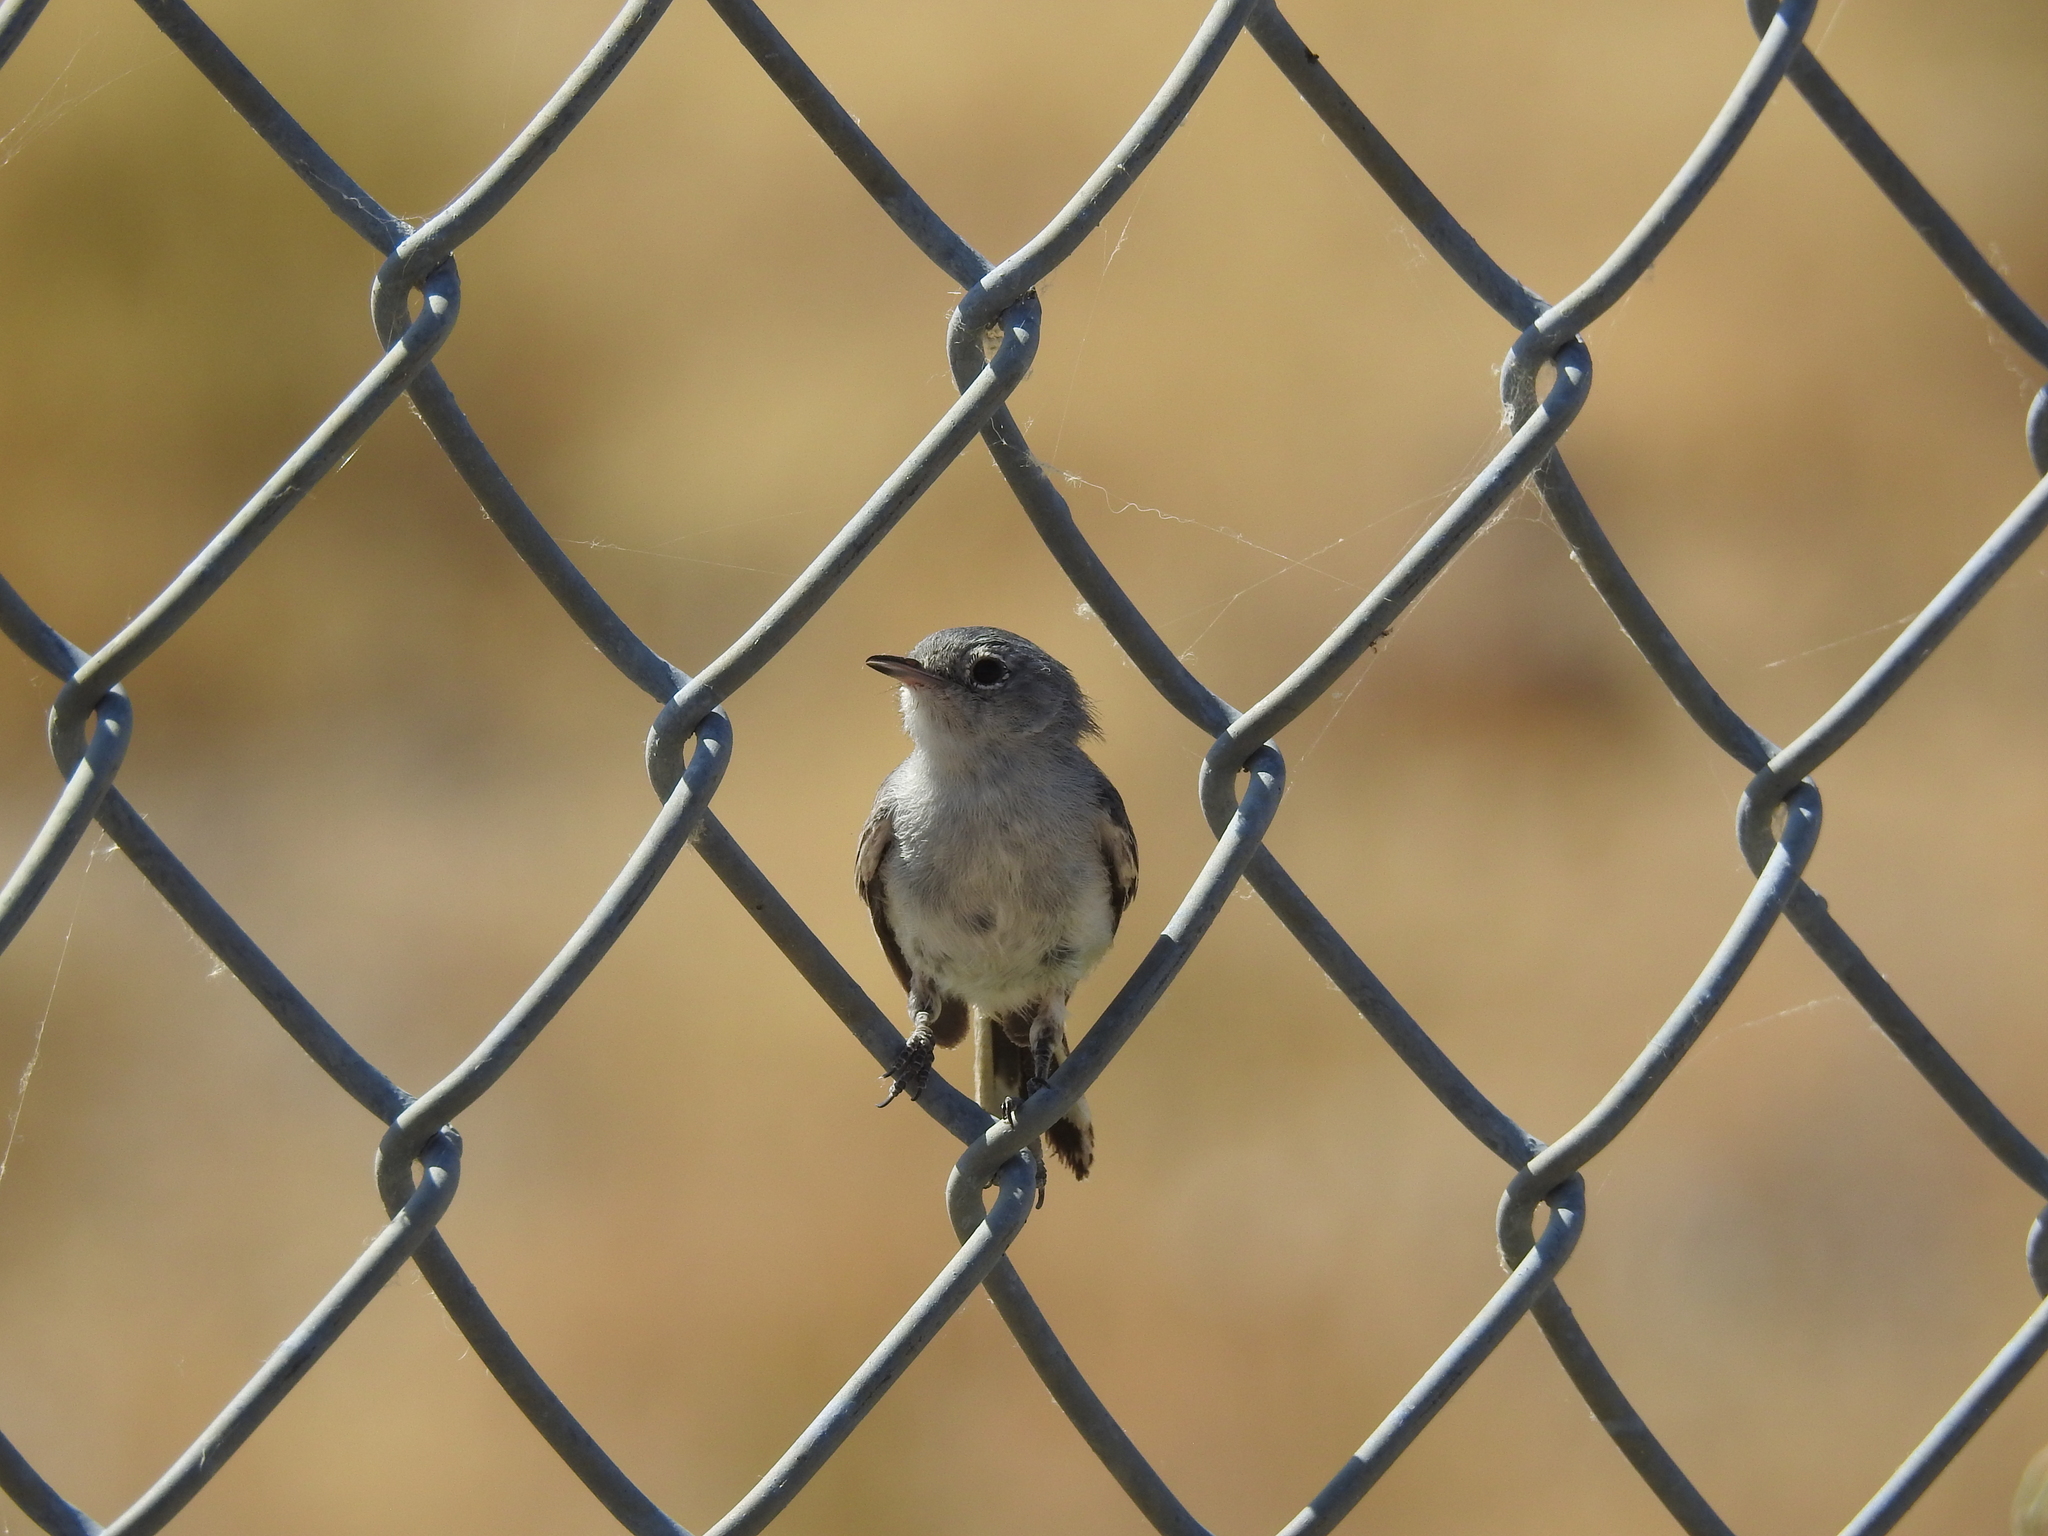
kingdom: Animalia
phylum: Chordata
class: Aves
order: Passeriformes
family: Polioptilidae
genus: Polioptila
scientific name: Polioptila melanura
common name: Black-tailed gnatcatcher
